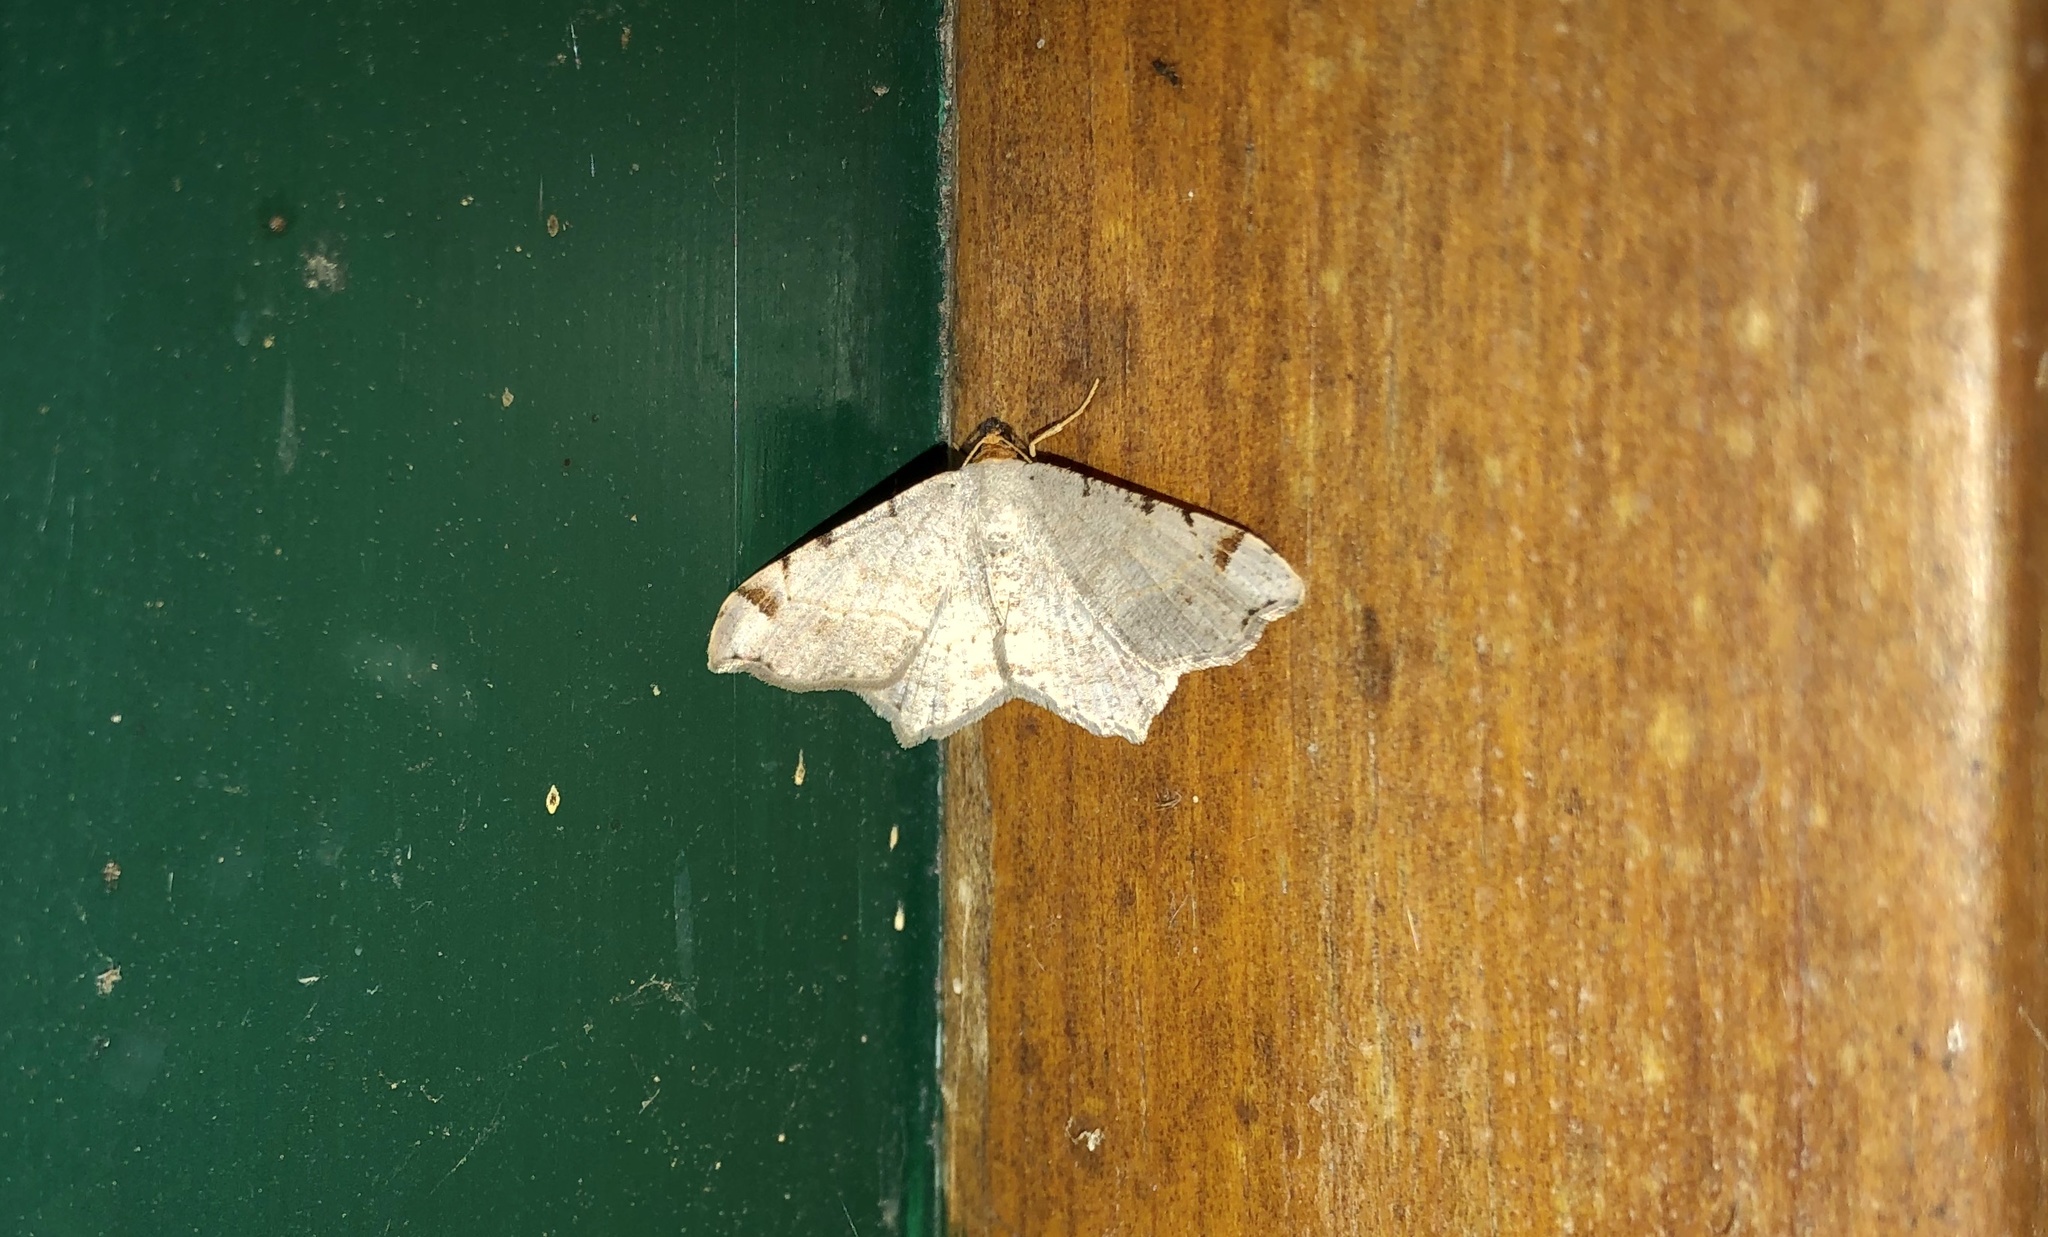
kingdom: Animalia
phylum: Arthropoda
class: Insecta
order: Lepidoptera
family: Geometridae
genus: Macaria
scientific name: Macaria bisignata
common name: Red-headed inchworm
